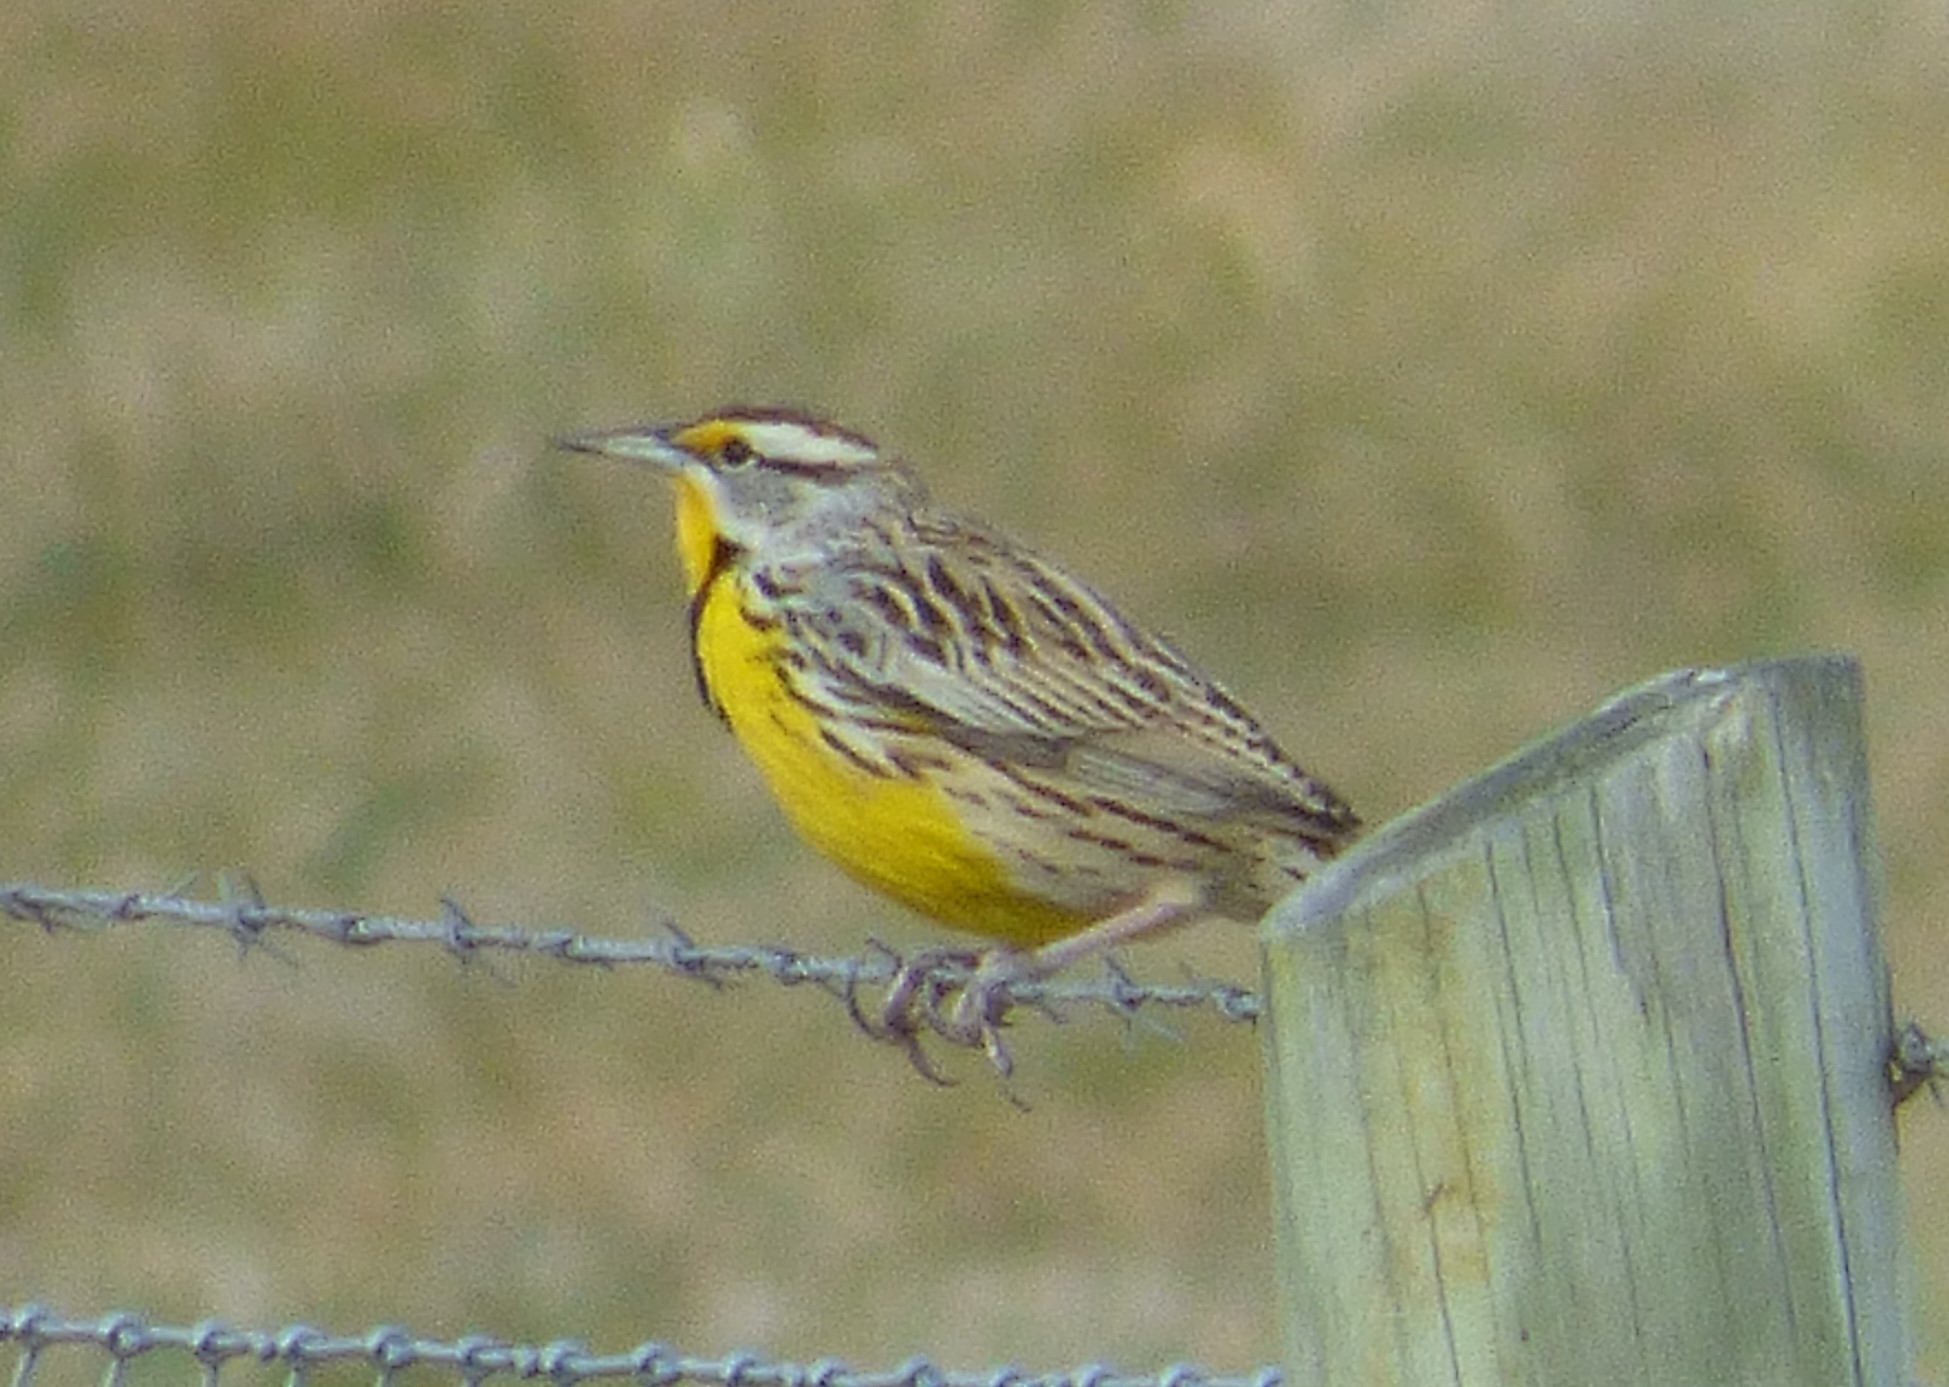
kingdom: Animalia
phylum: Chordata
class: Aves
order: Passeriformes
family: Icteridae
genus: Sturnella
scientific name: Sturnella magna
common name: Eastern meadowlark
